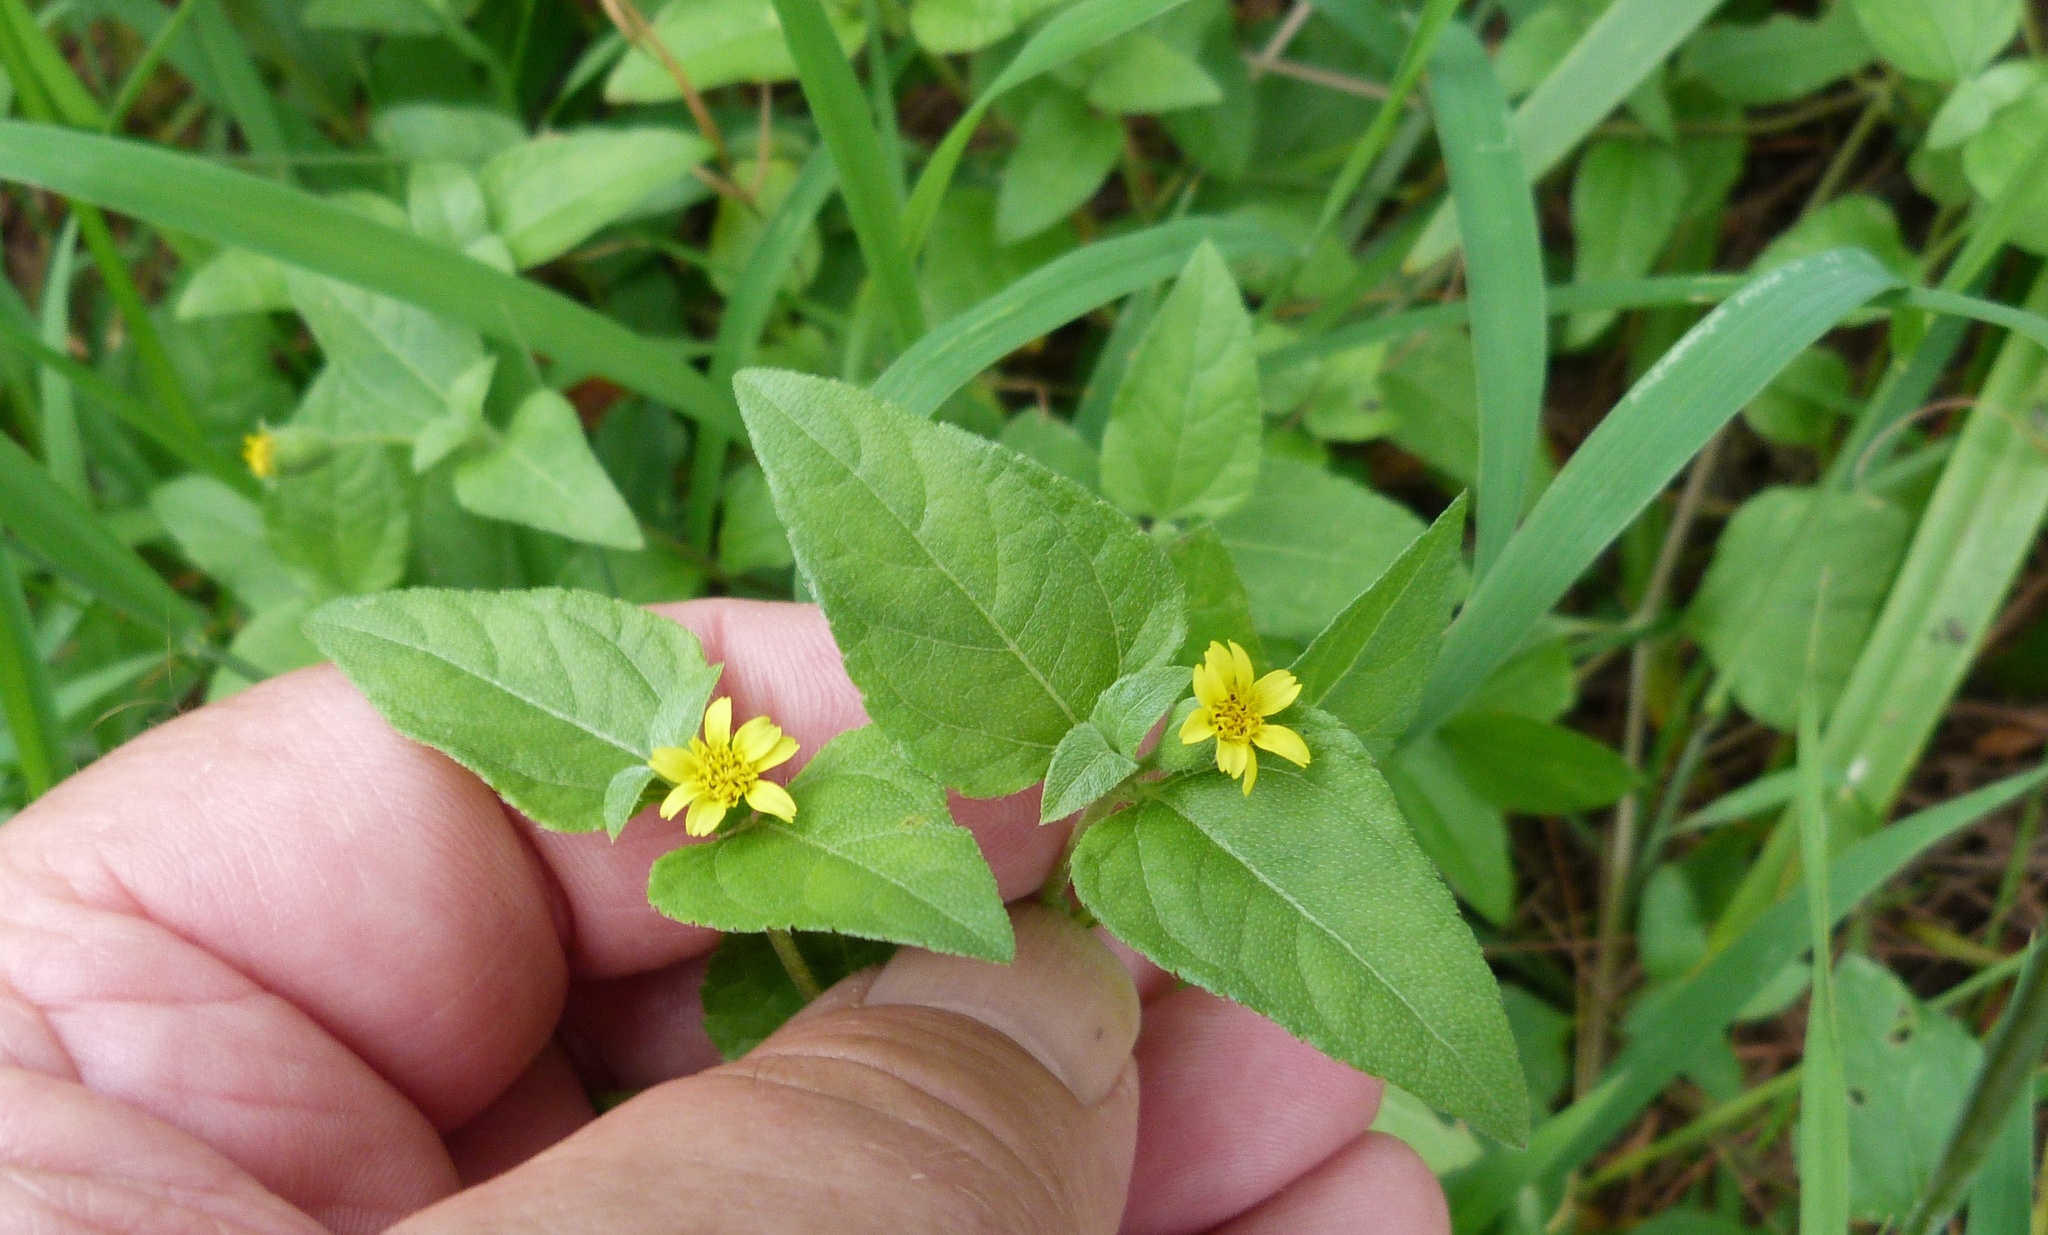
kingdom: Plantae
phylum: Tracheophyta
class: Magnoliopsida
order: Asterales
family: Asteraceae
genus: Calyptocarpus
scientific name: Calyptocarpus vialis
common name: Straggler daisy
